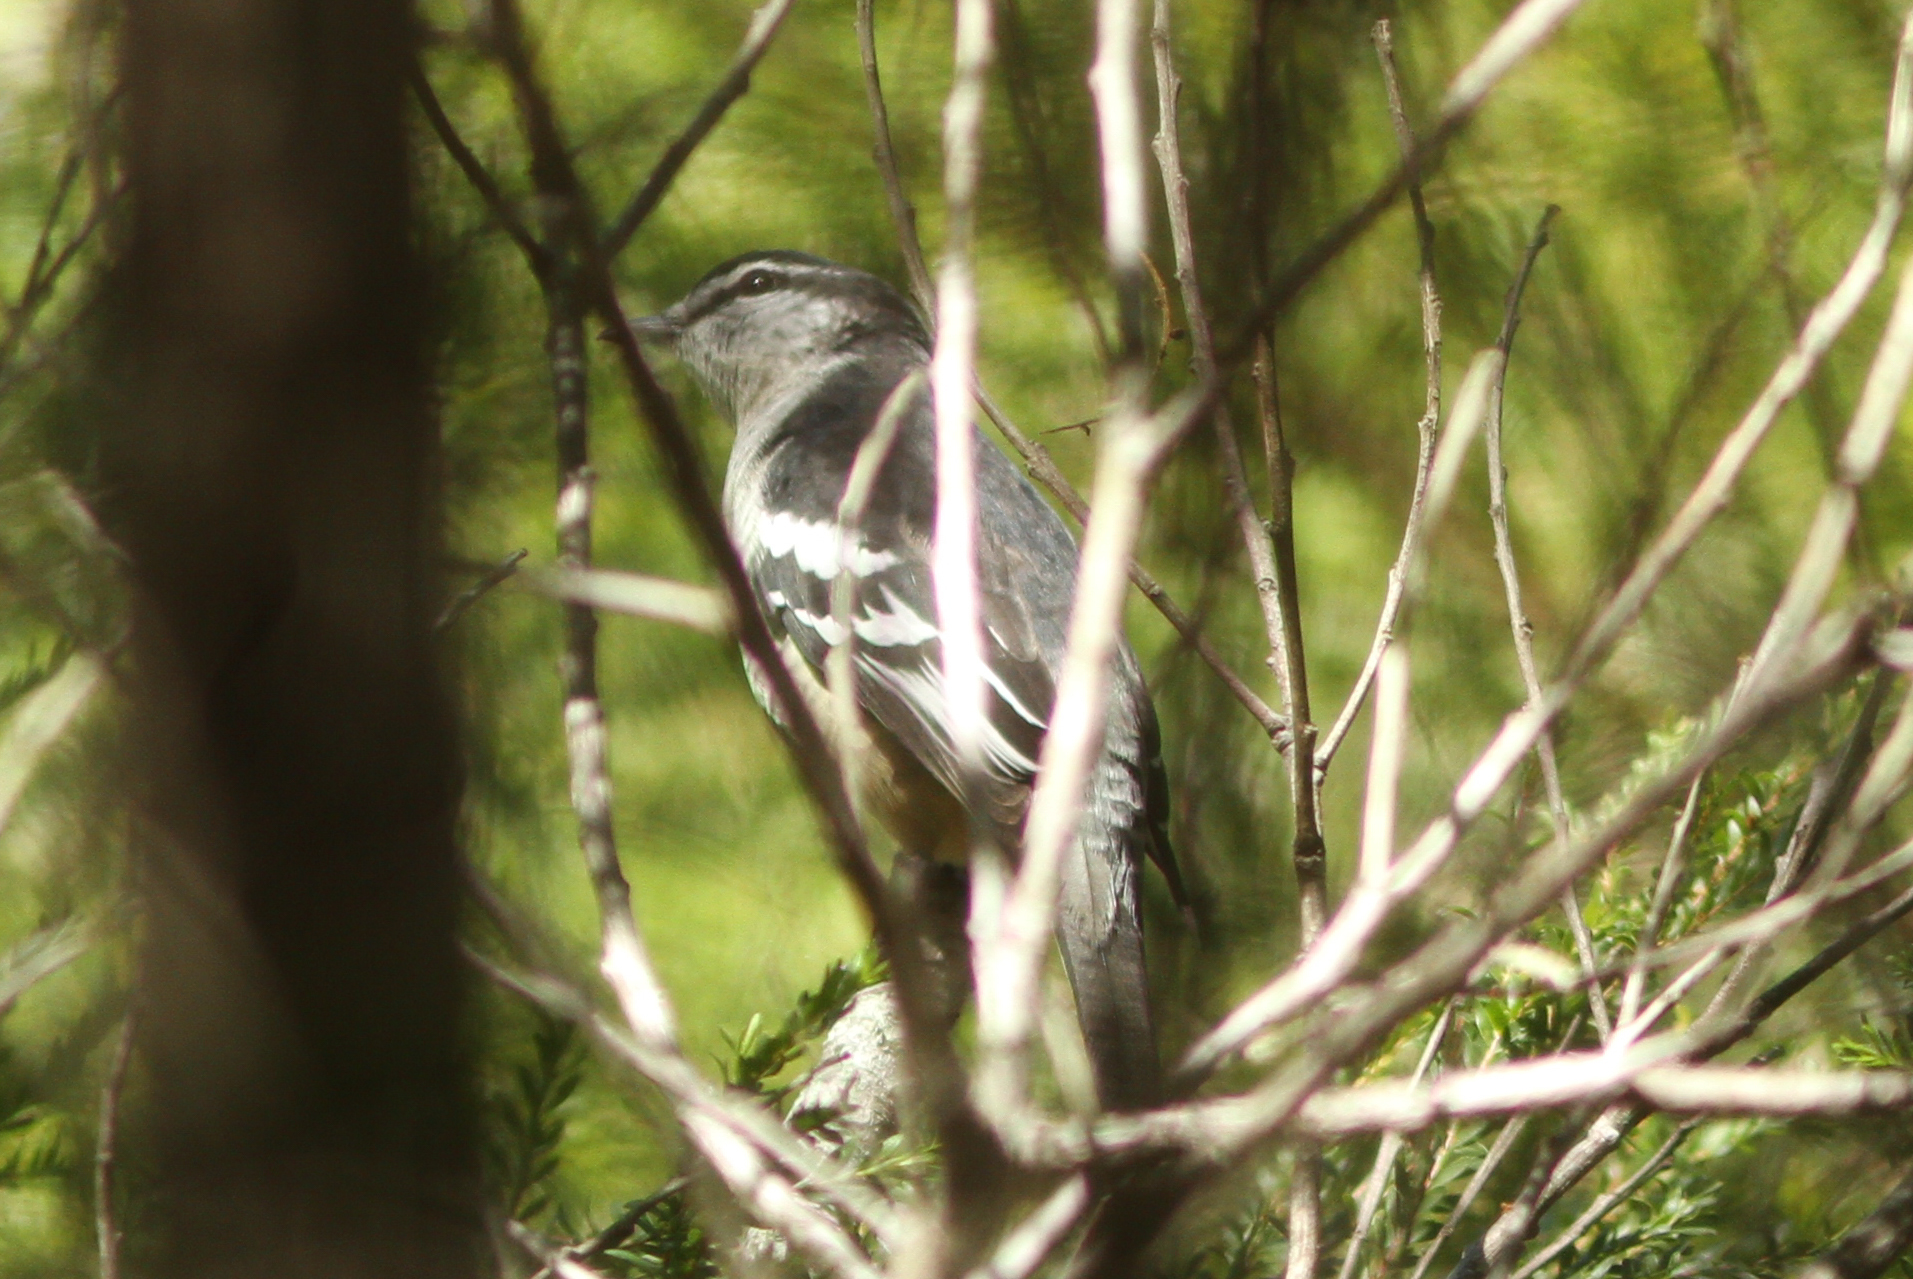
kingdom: Animalia
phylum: Chordata
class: Aves
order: Passeriformes
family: Campephagidae
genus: Lalage
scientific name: Lalage leucomela
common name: Varied triller
